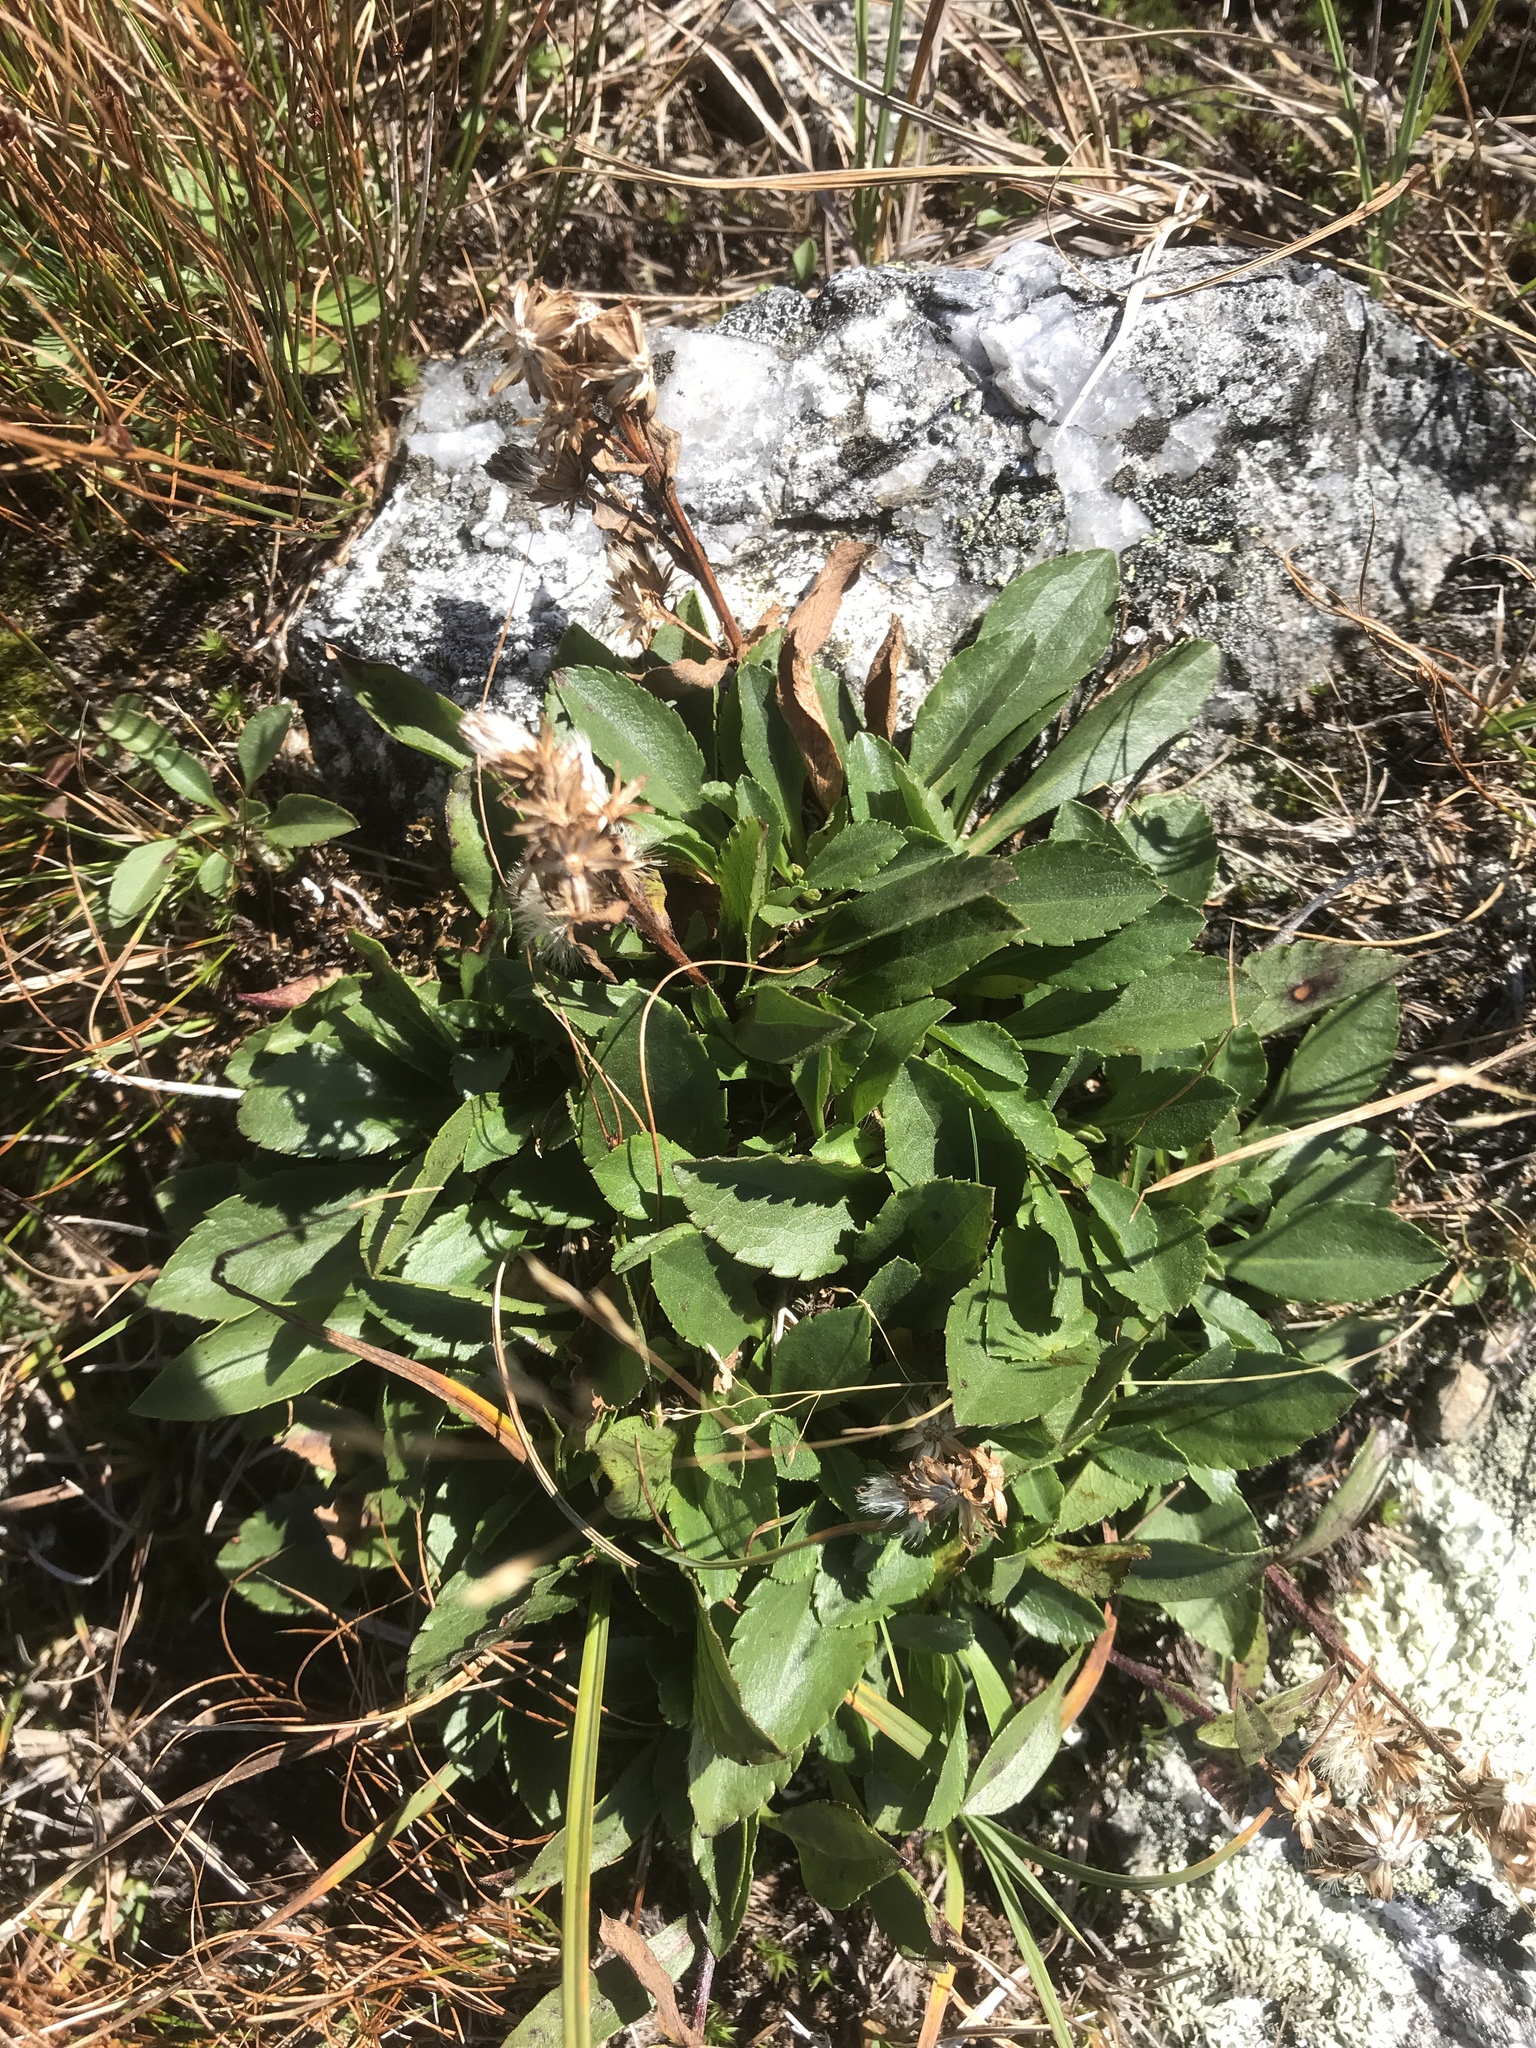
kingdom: Plantae
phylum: Tracheophyta
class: Magnoliopsida
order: Asterales
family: Asteraceae
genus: Solidago
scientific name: Solidago leiocarpa
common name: Cutler's alpine goldenrod
